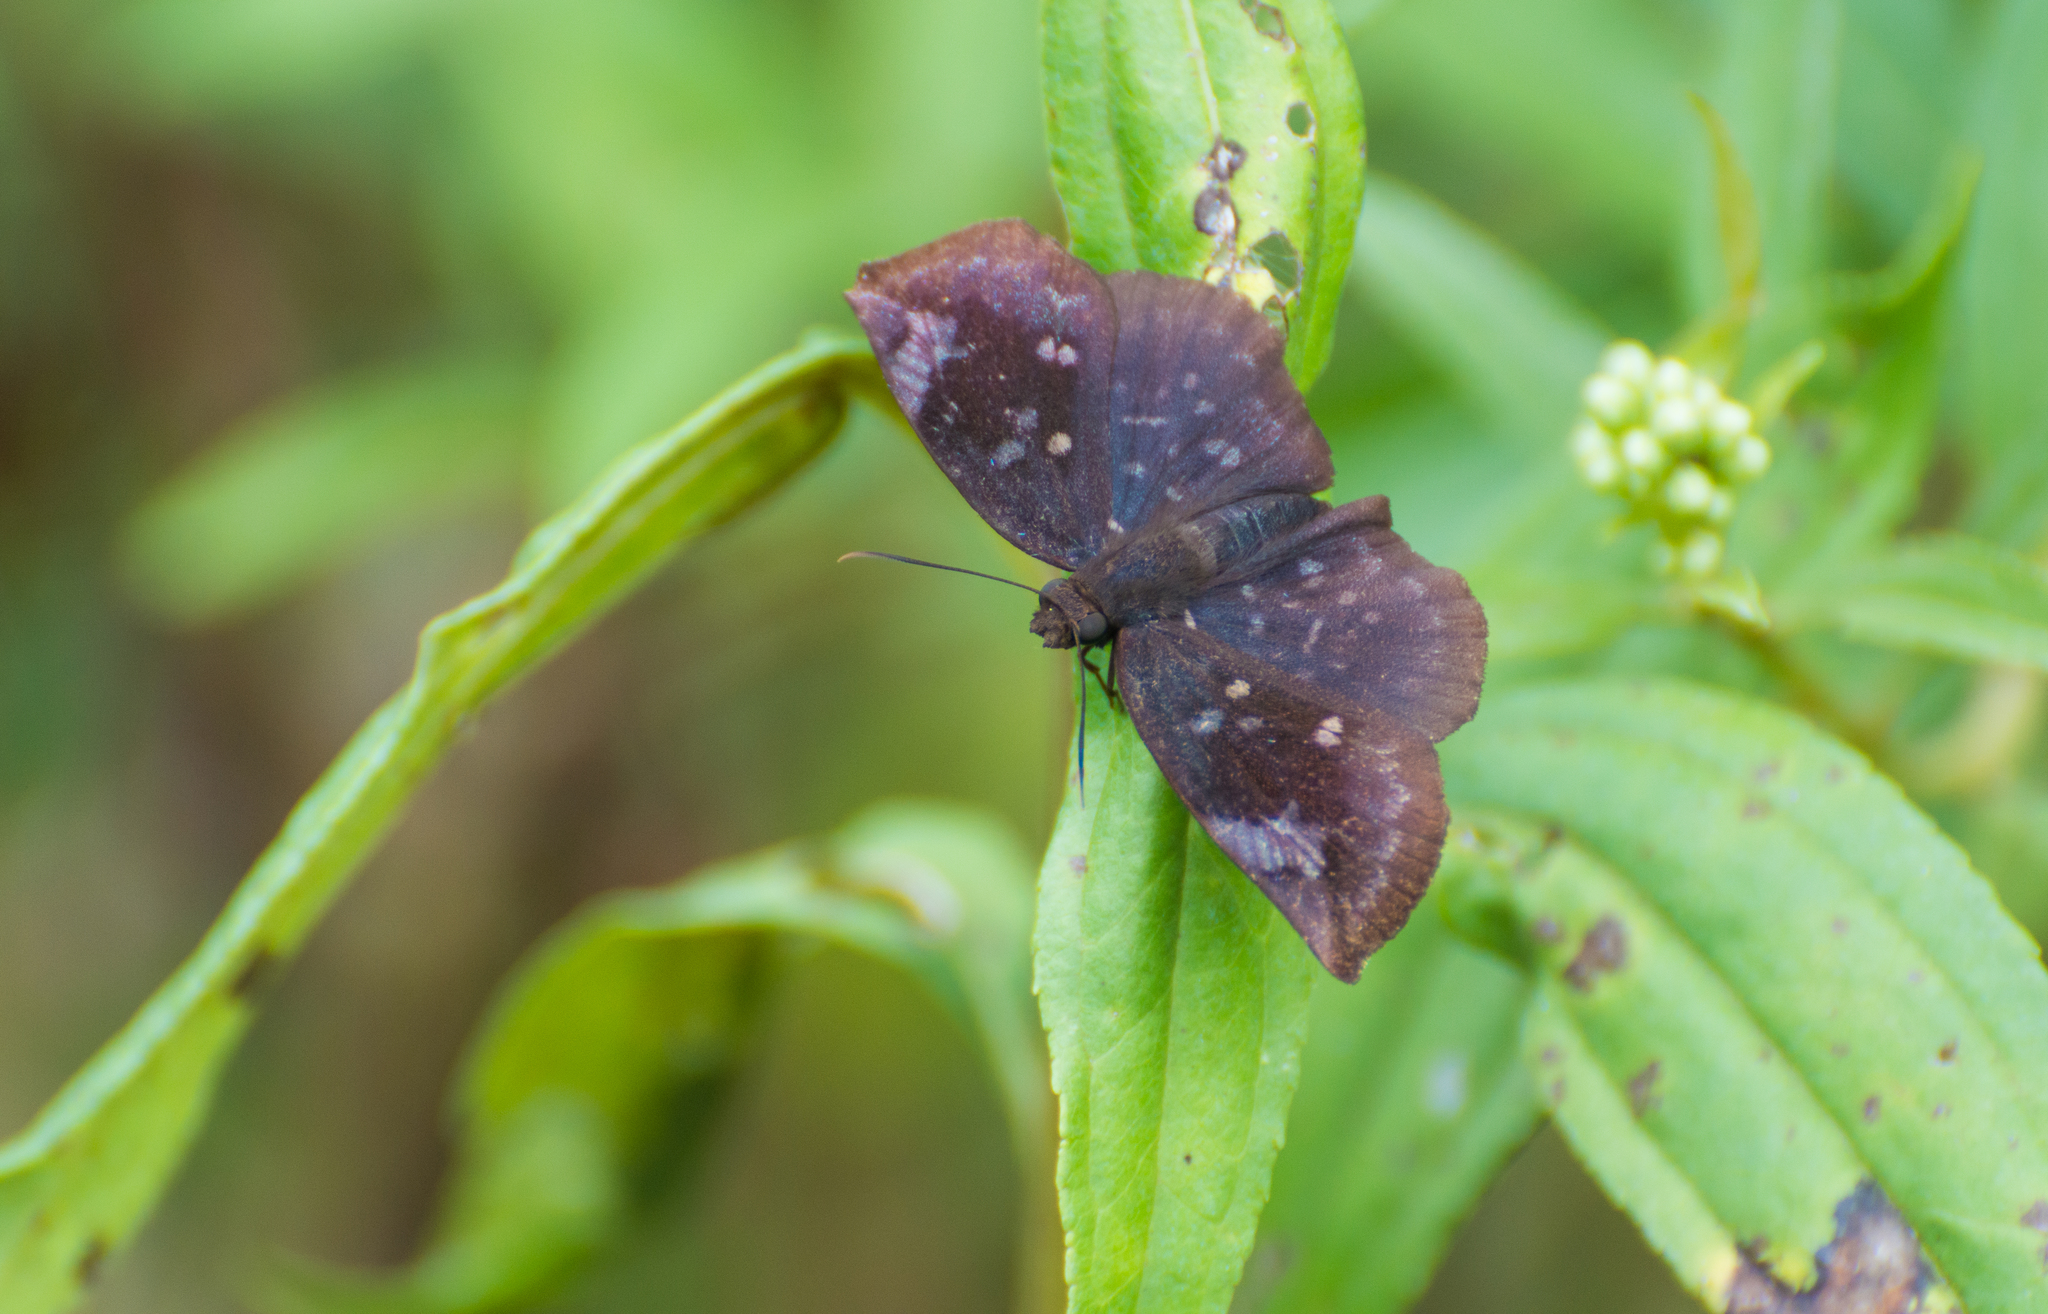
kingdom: Animalia
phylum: Arthropoda
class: Insecta
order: Lepidoptera
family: Hesperiidae
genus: Achlyodes
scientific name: Achlyodes thraso
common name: Sickle-winged skipper
